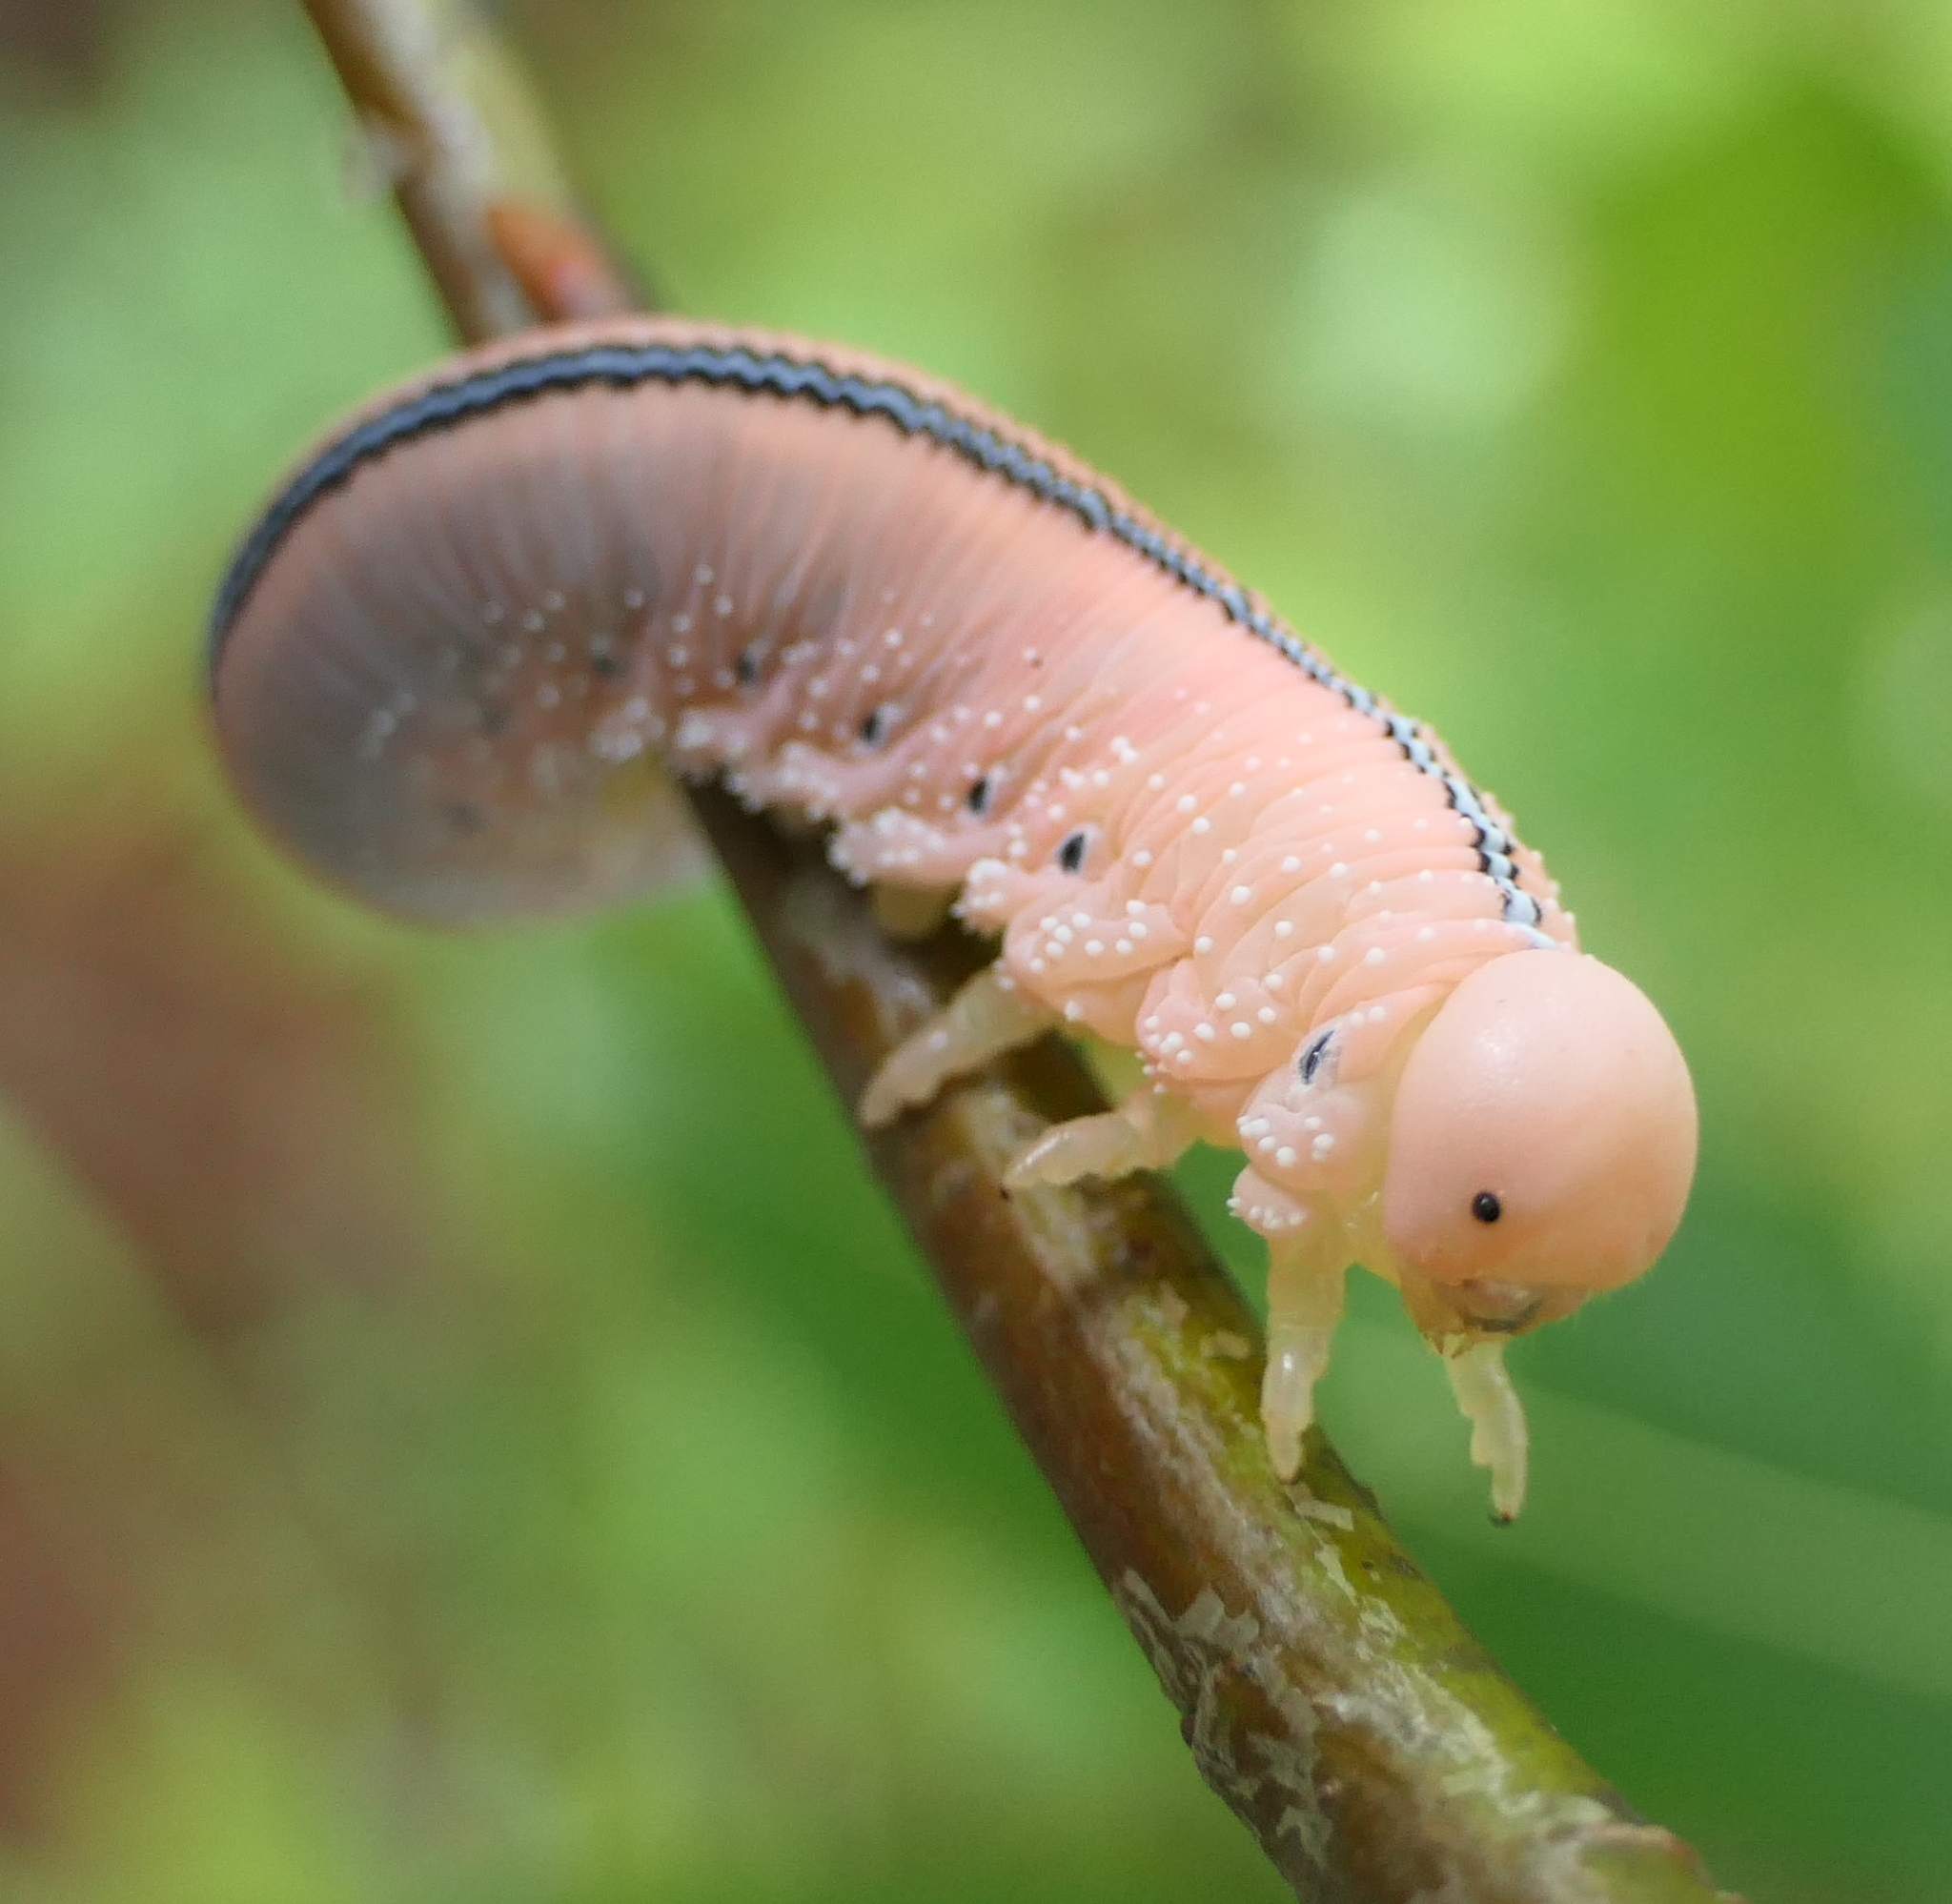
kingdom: Animalia
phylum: Arthropoda
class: Insecta
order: Hymenoptera
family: Cimbicidae
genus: Cimbex
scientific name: Cimbex americana
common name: Elm sawfly
